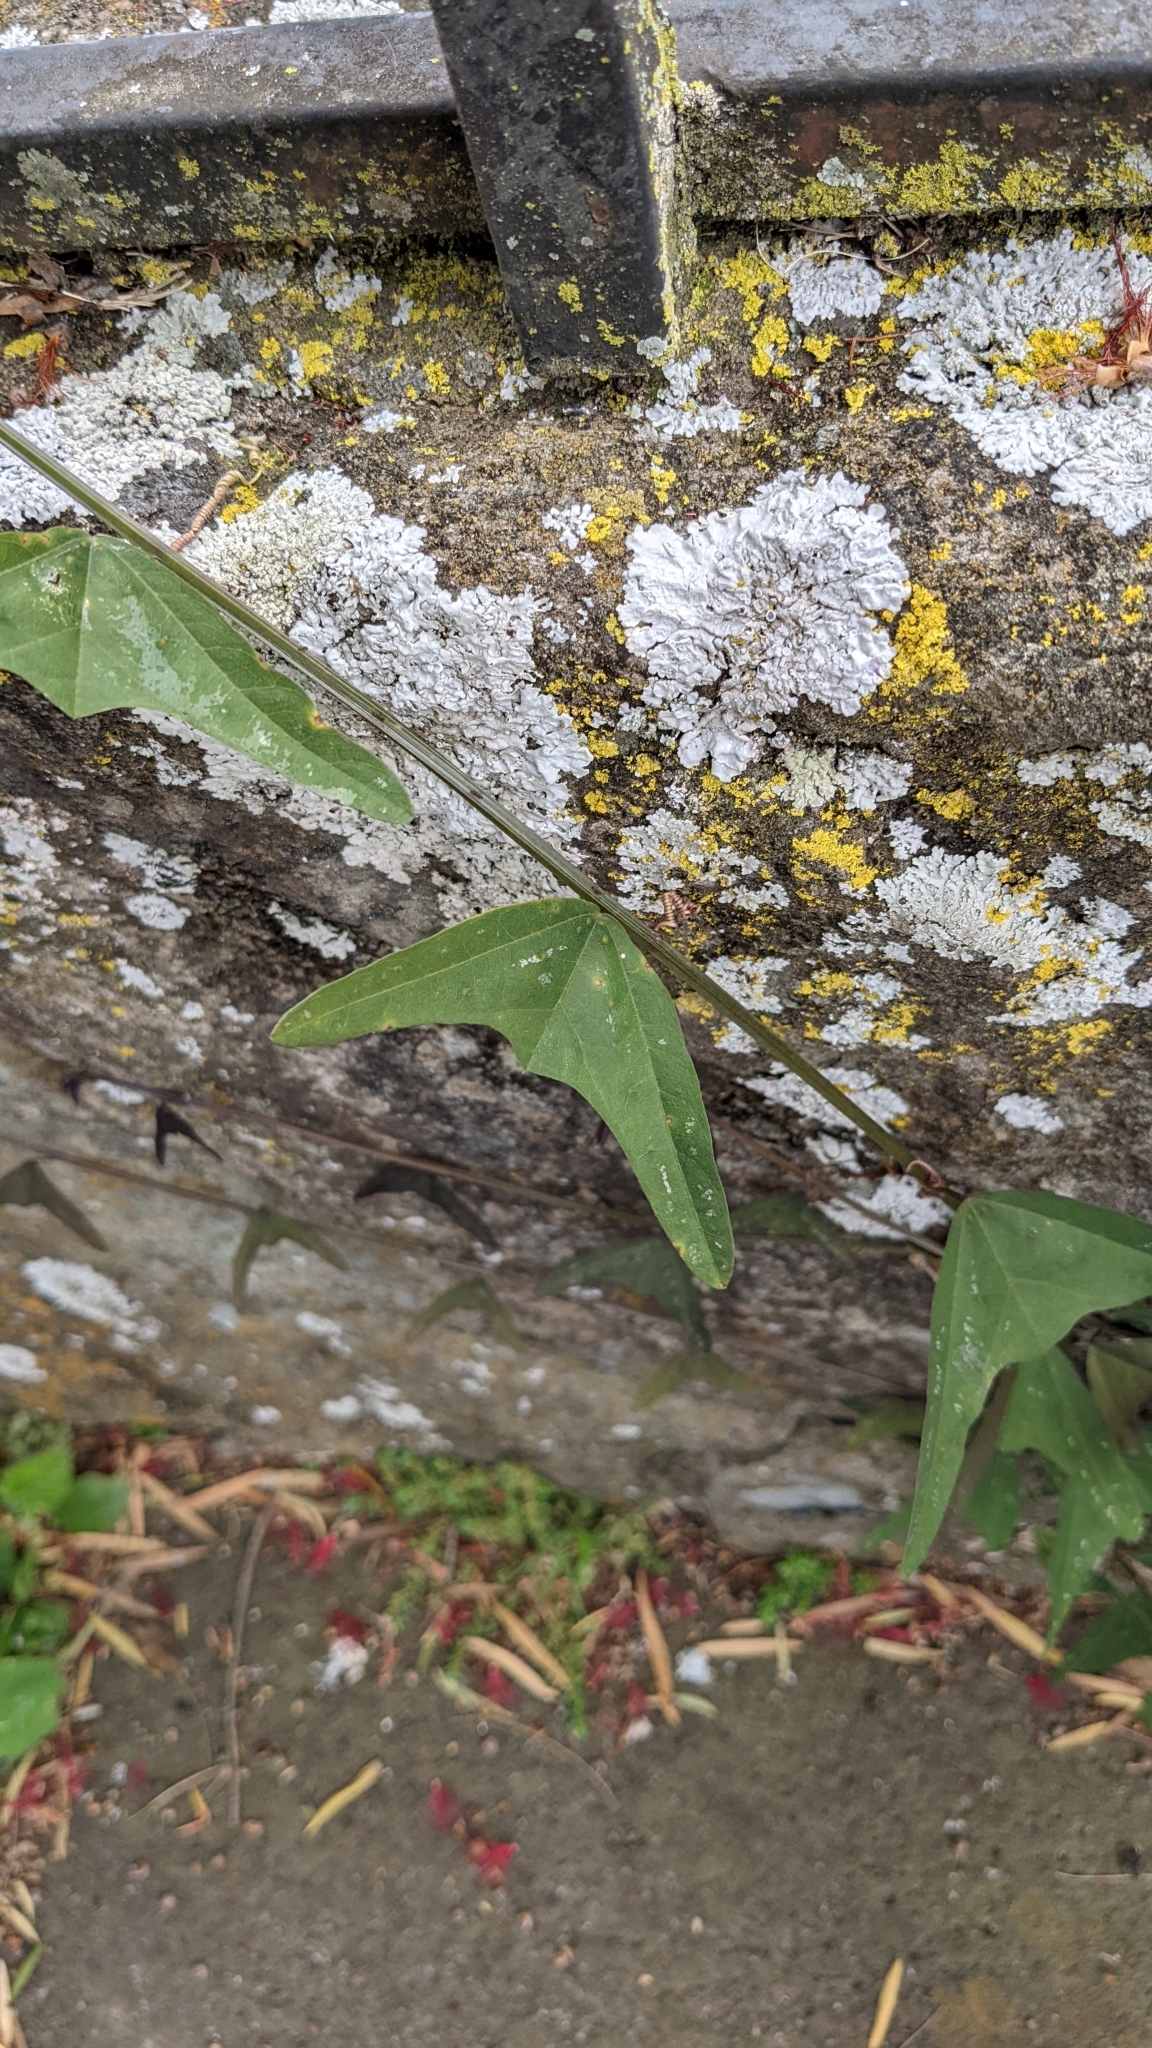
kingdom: Plantae
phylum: Tracheophyta
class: Magnoliopsida
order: Malpighiales
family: Passifloraceae
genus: Passiflora
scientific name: Passiflora biflora
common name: Twoflower passionflower
